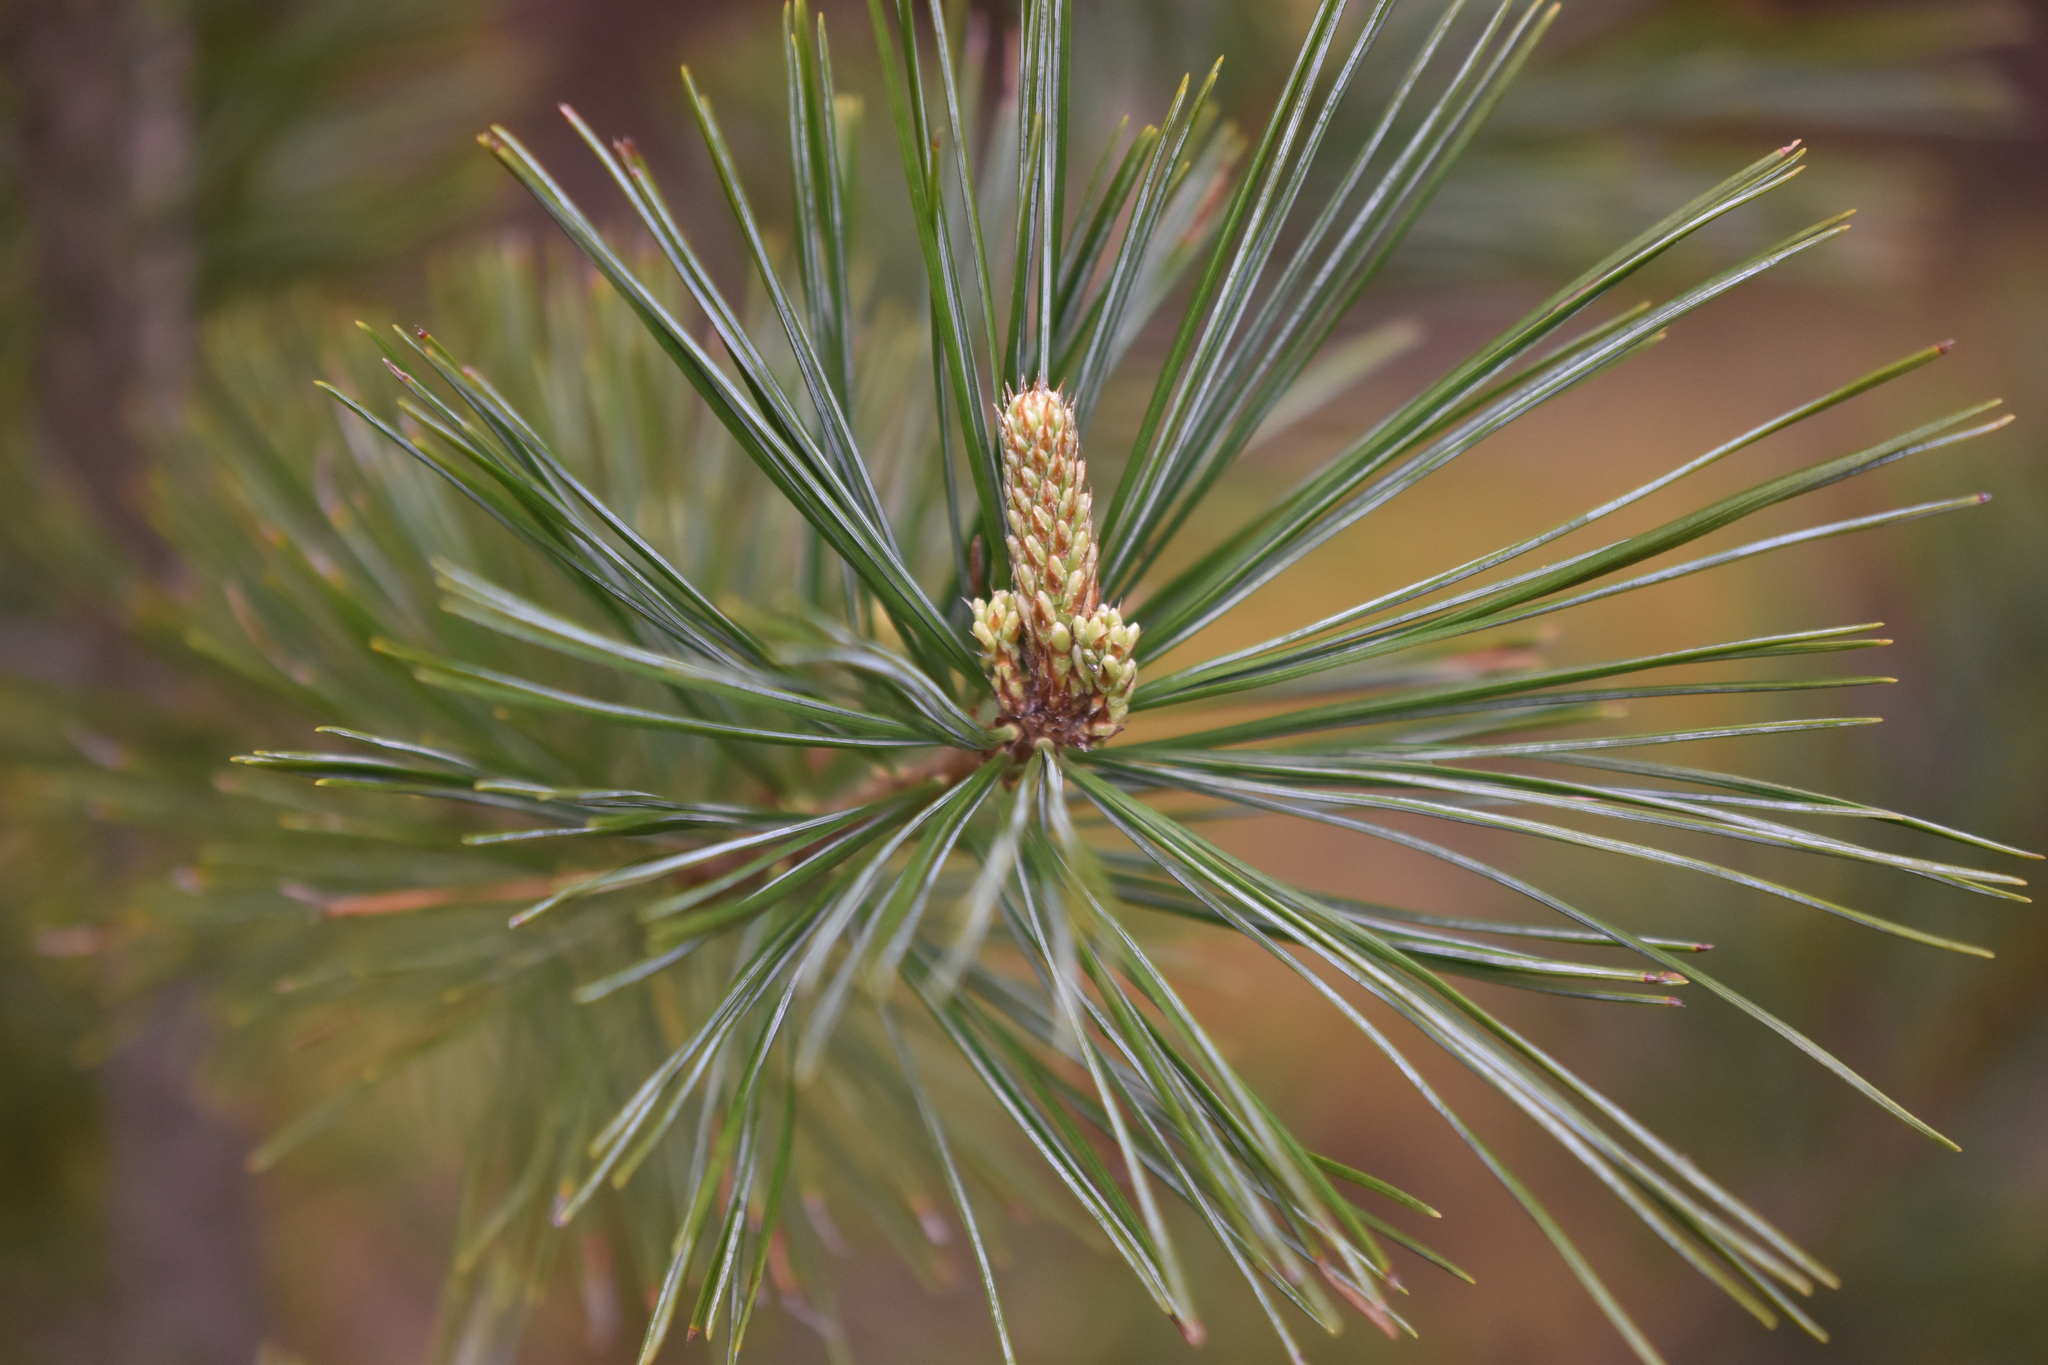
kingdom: Plantae
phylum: Tracheophyta
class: Pinopsida
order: Pinales
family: Pinaceae
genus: Pinus
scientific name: Pinus monticola
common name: Western white pine
